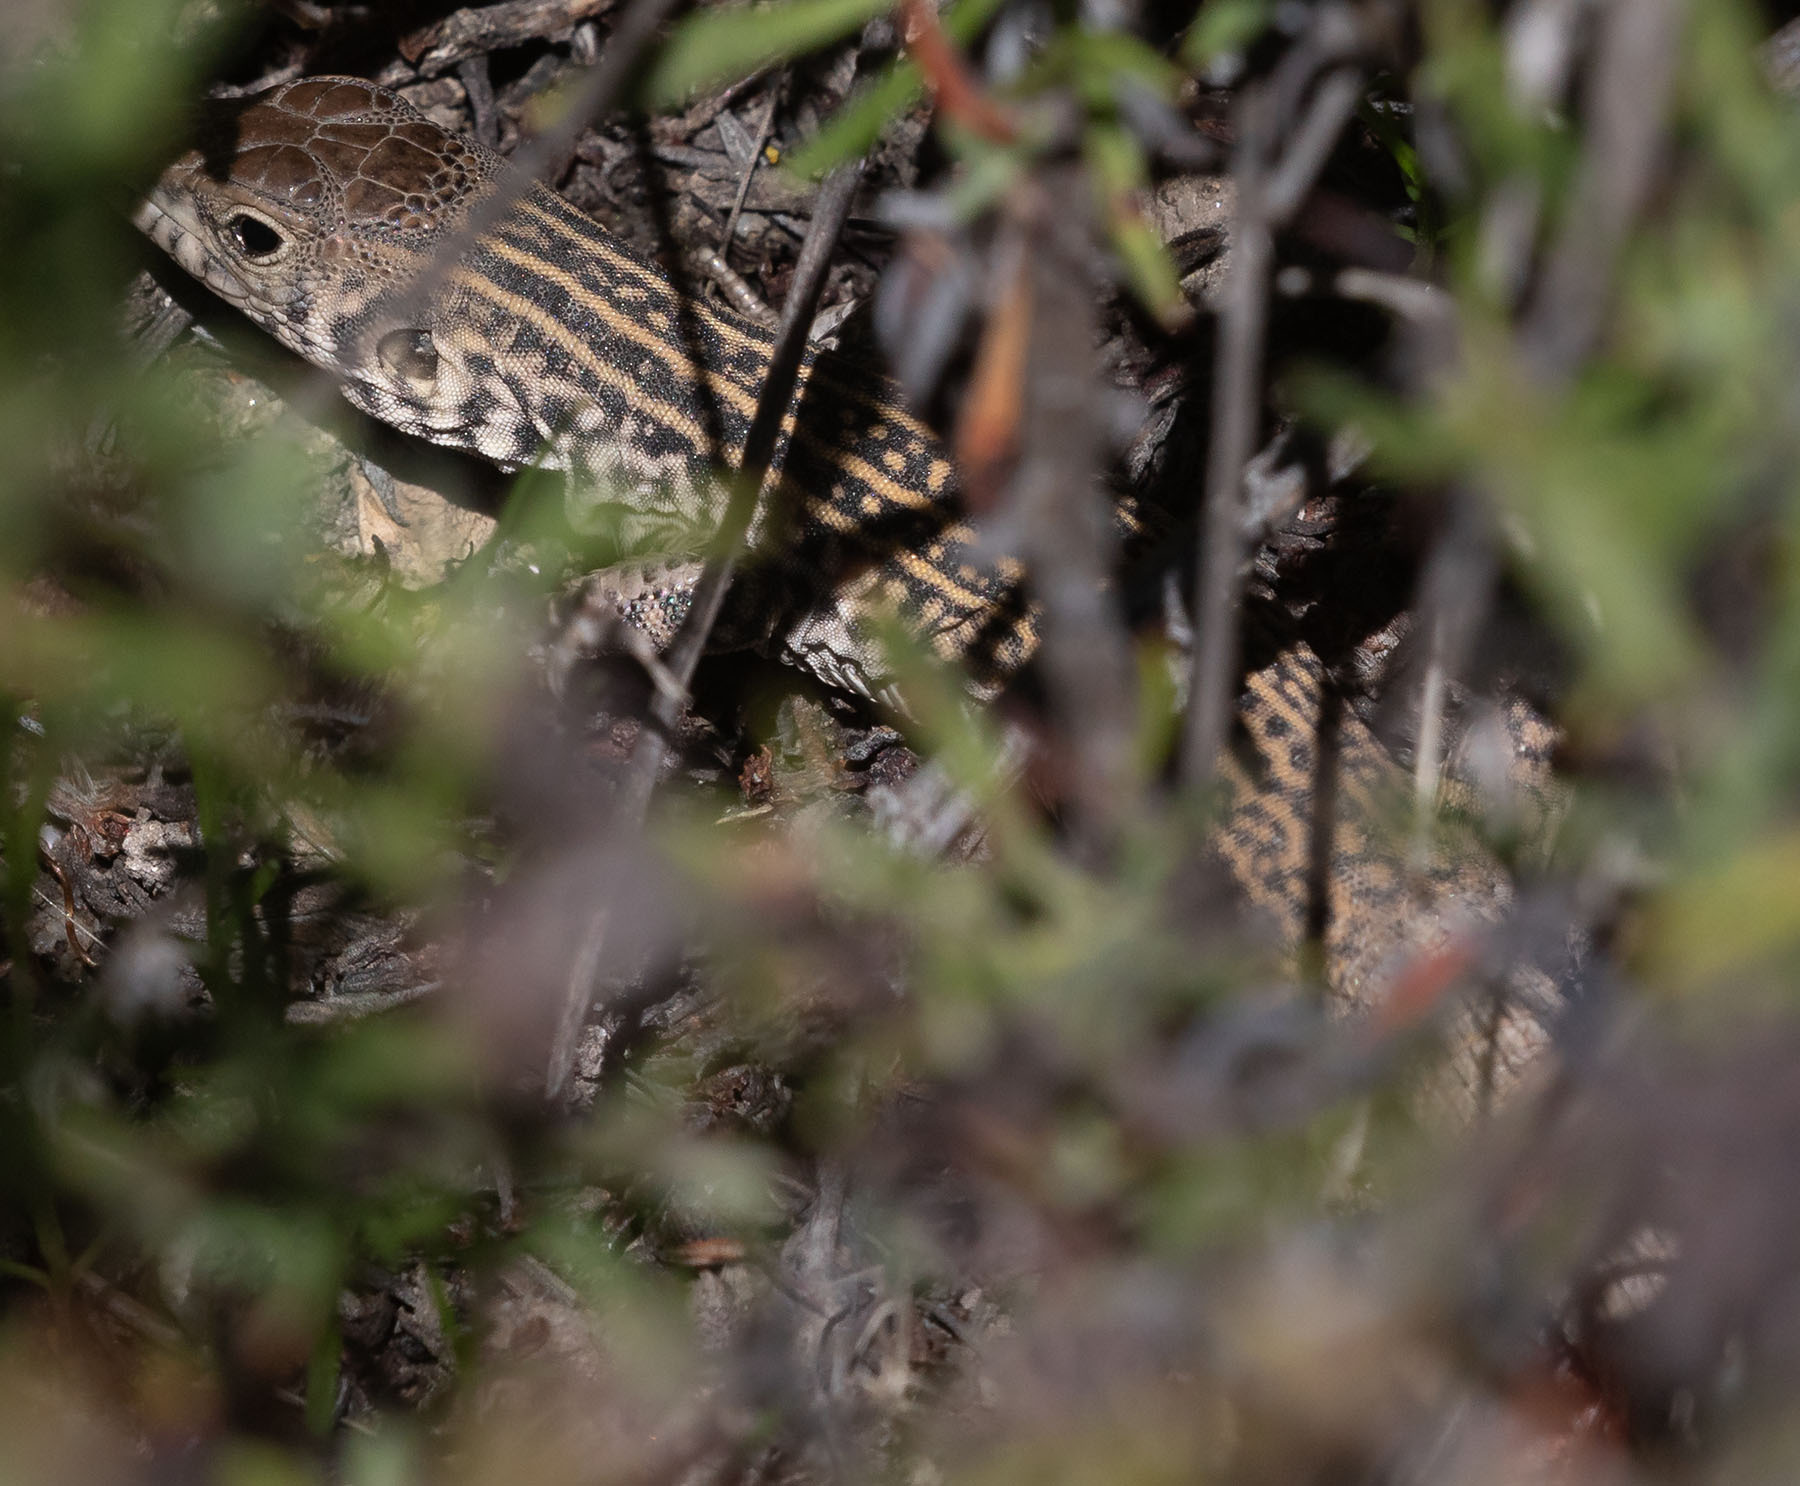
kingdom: Animalia
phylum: Chordata
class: Squamata
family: Teiidae
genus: Aspidoscelis
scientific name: Aspidoscelis tigris
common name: Tiger whiptail
